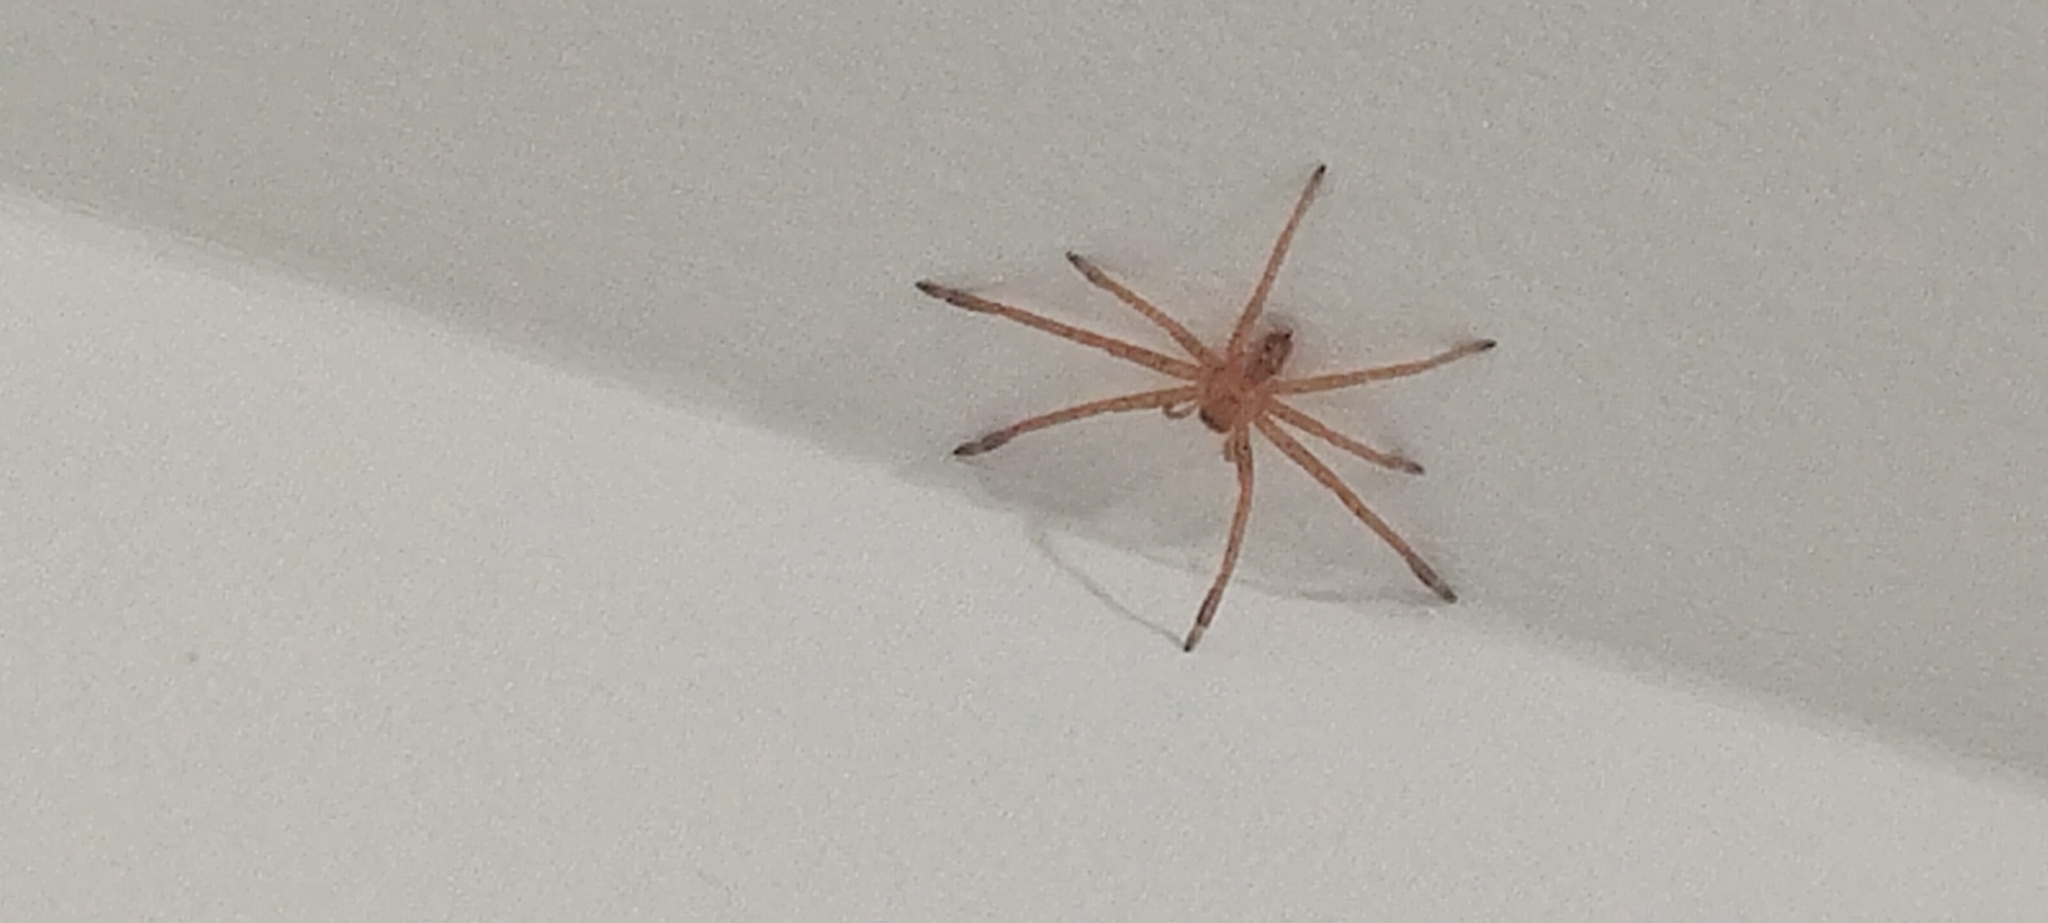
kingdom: Animalia
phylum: Arthropoda
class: Arachnida
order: Araneae
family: Sparassidae
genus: Olios
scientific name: Olios argelasius
